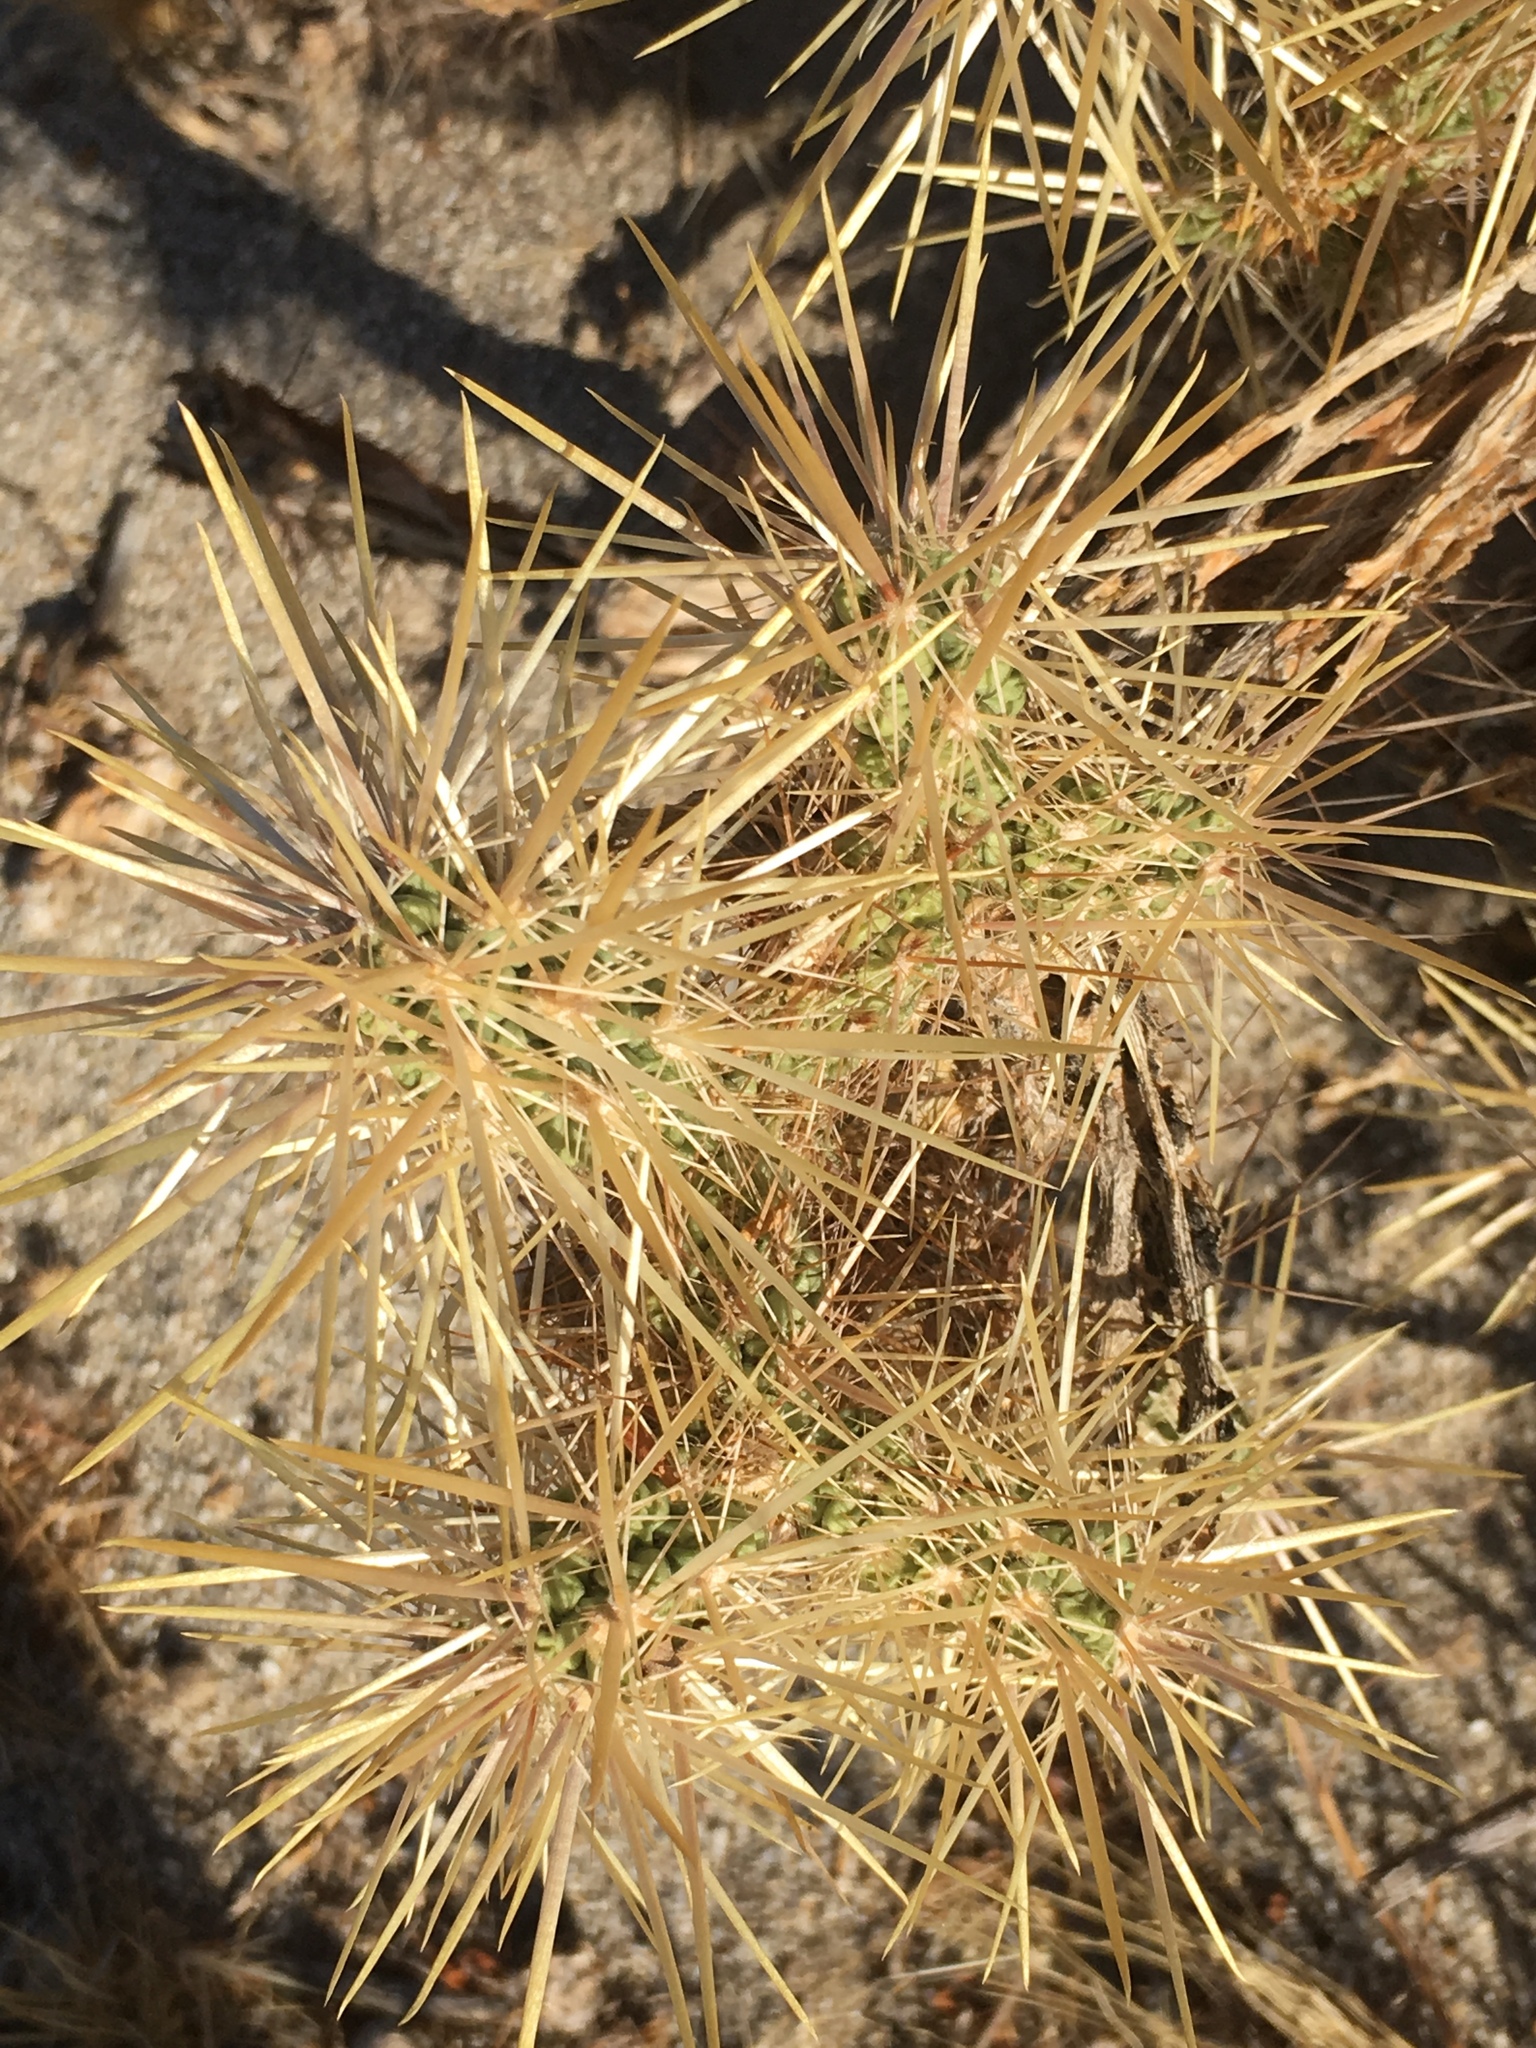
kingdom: Plantae
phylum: Tracheophyta
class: Magnoliopsida
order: Caryophyllales
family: Cactaceae
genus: Cylindropuntia
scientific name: Cylindropuntia echinocarpa
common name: Ground cholla
